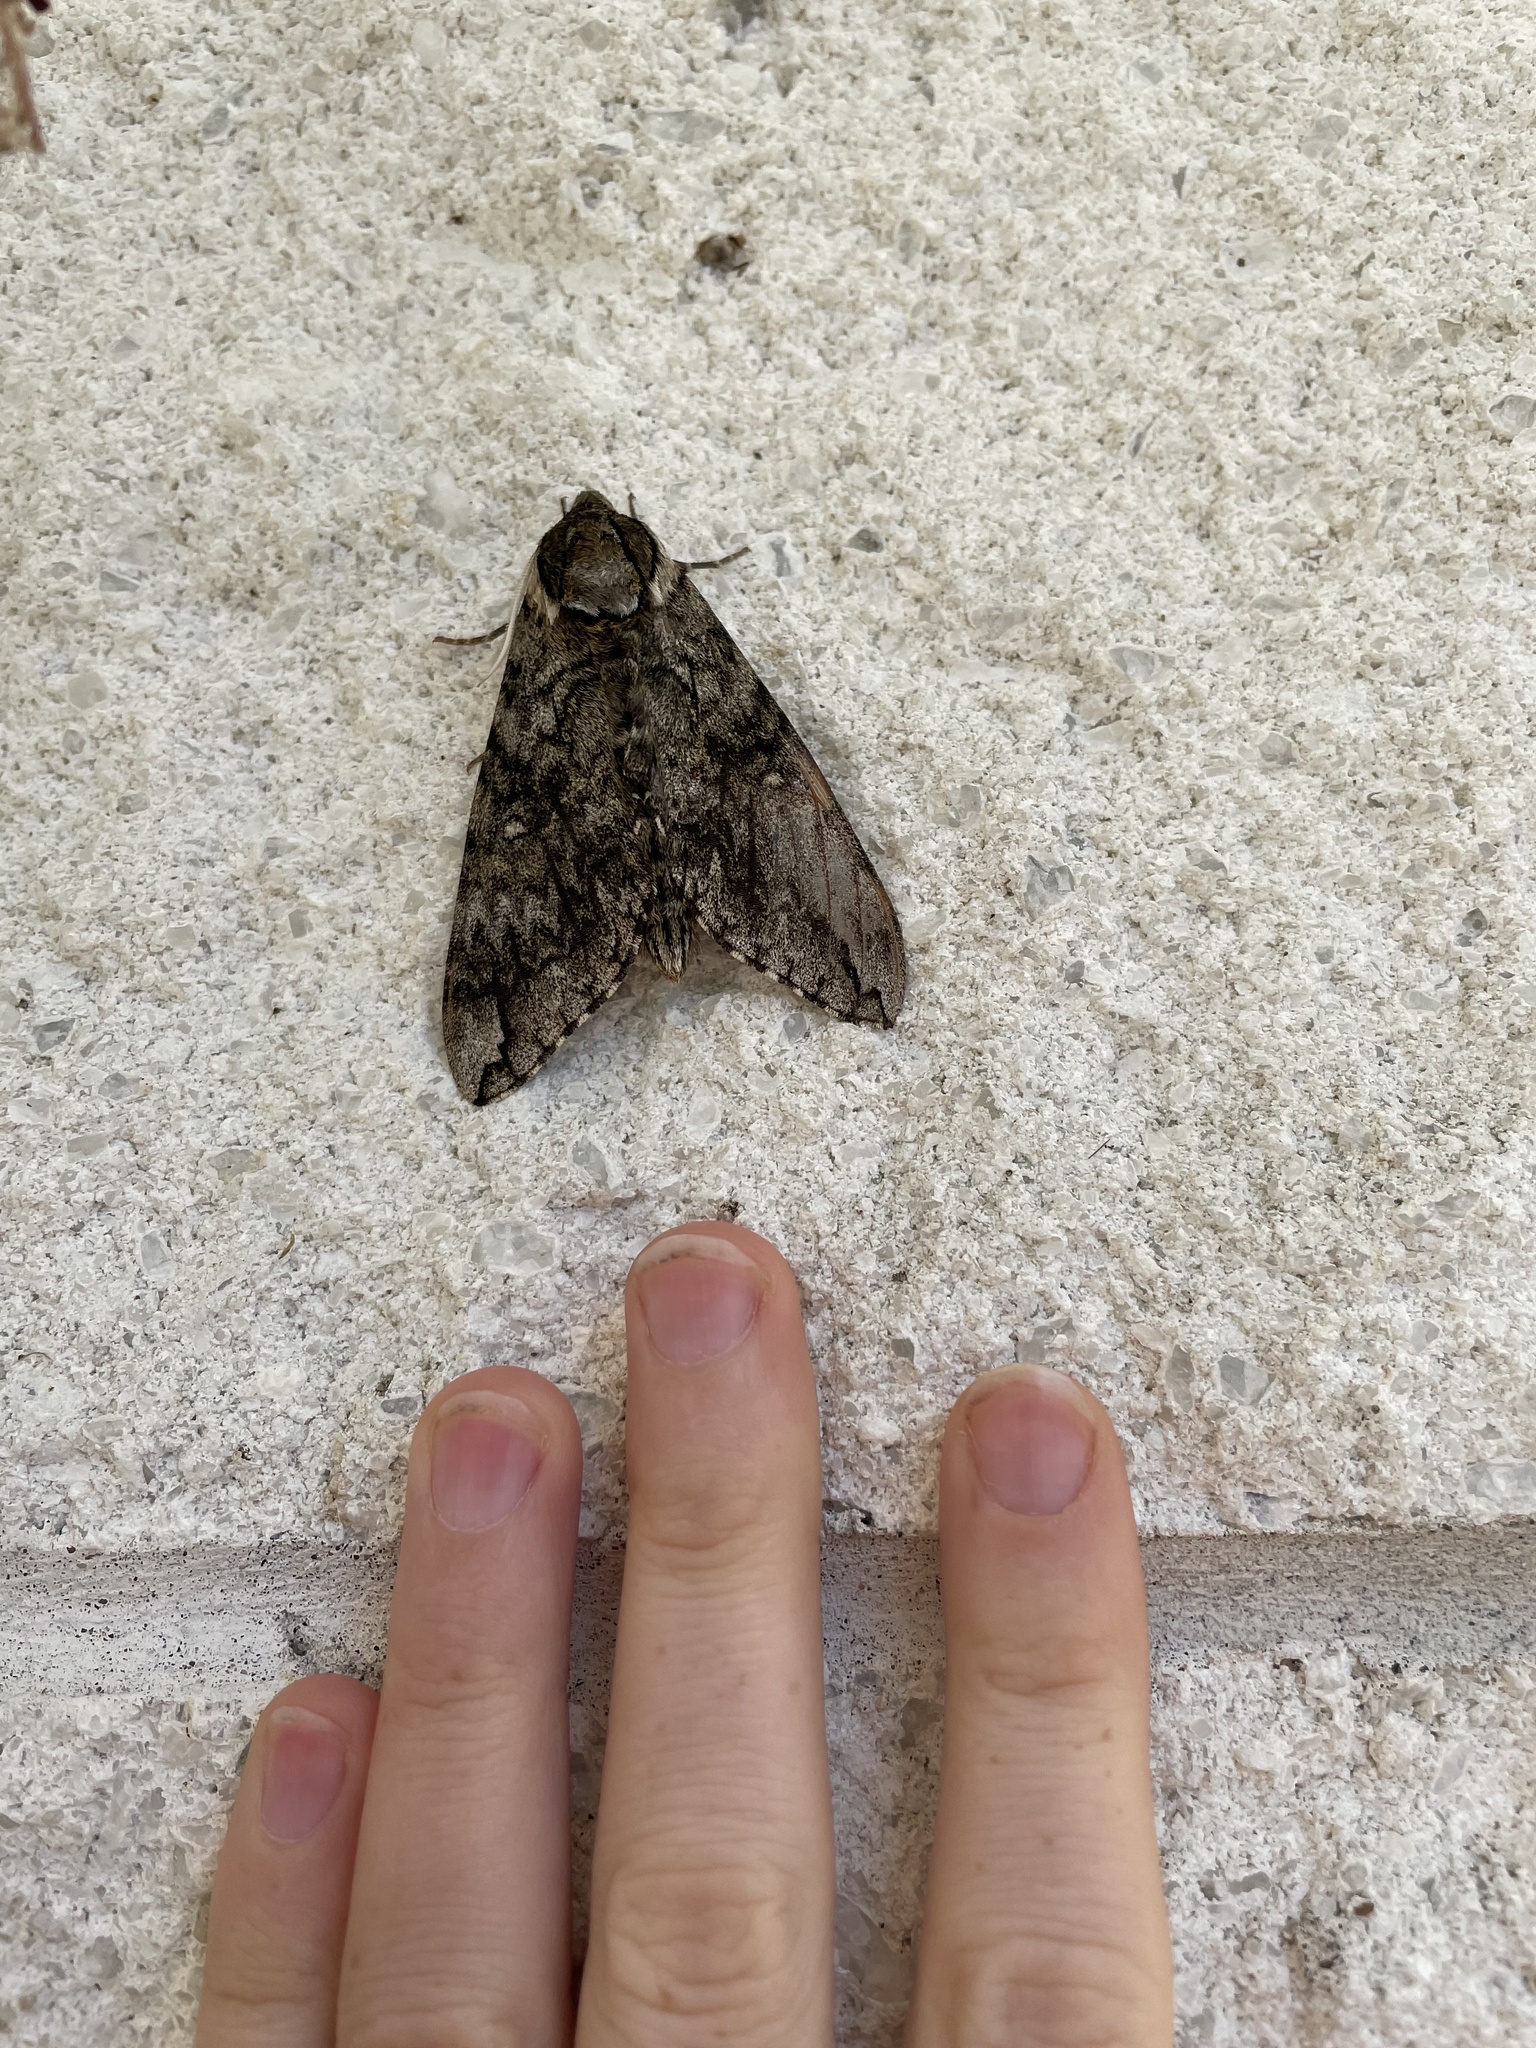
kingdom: Animalia
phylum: Arthropoda
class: Insecta
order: Lepidoptera
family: Sphingidae
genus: Ceratomia
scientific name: Ceratomia undulosa
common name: Waved sphinx
